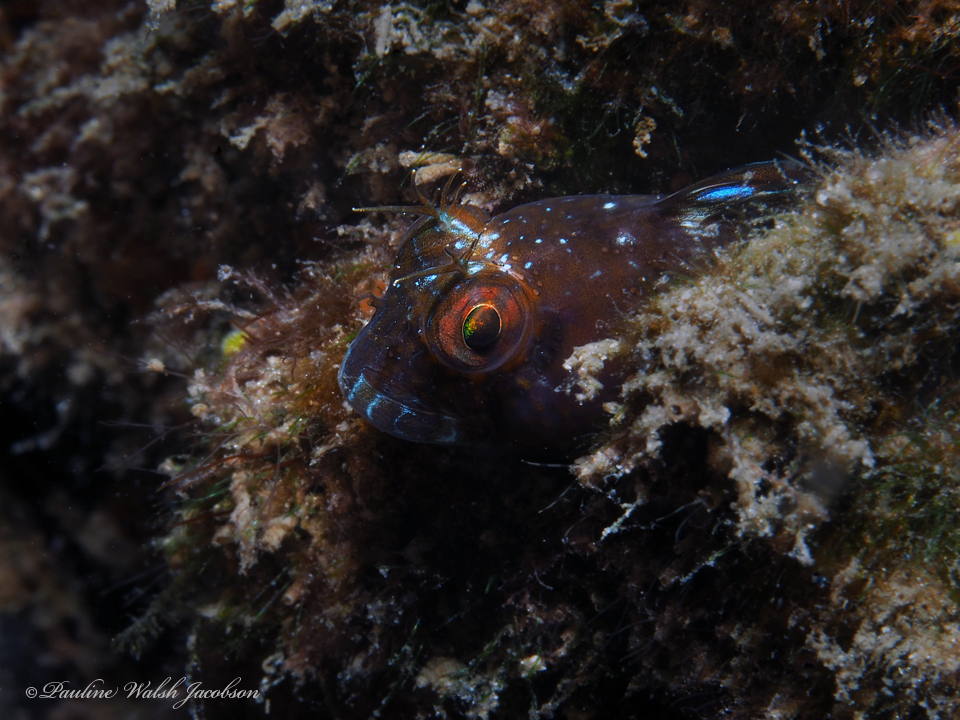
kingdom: Animalia
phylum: Chordata
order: Perciformes
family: Blenniidae
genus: Parablennius
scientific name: Parablennius marmoreus
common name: Seaweed blenny
